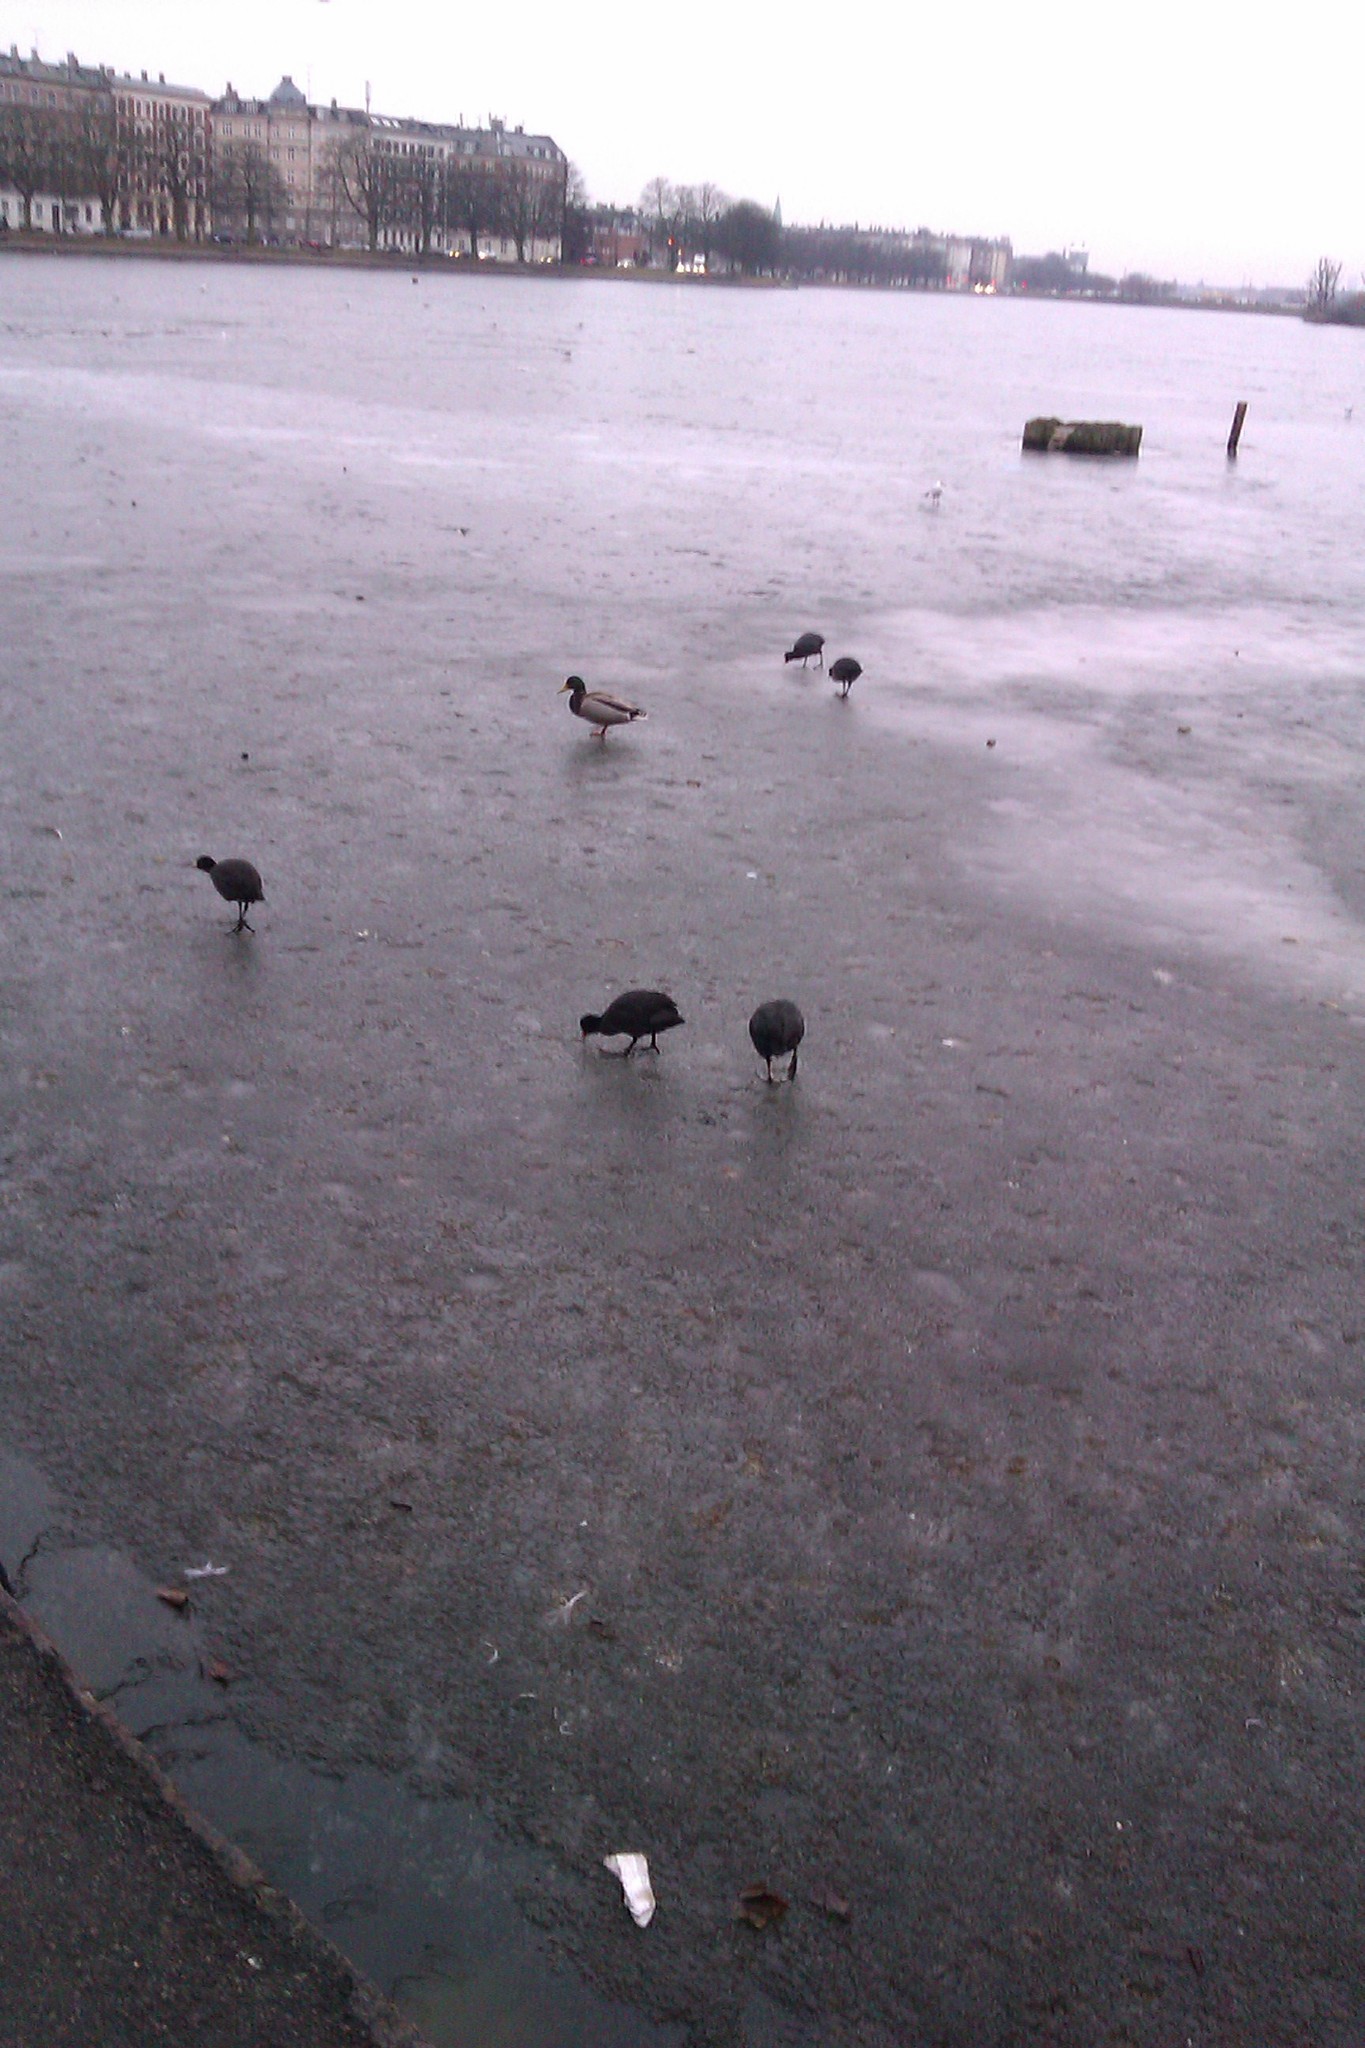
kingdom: Animalia
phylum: Chordata
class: Aves
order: Gruiformes
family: Rallidae
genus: Fulica
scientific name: Fulica atra
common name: Eurasian coot
